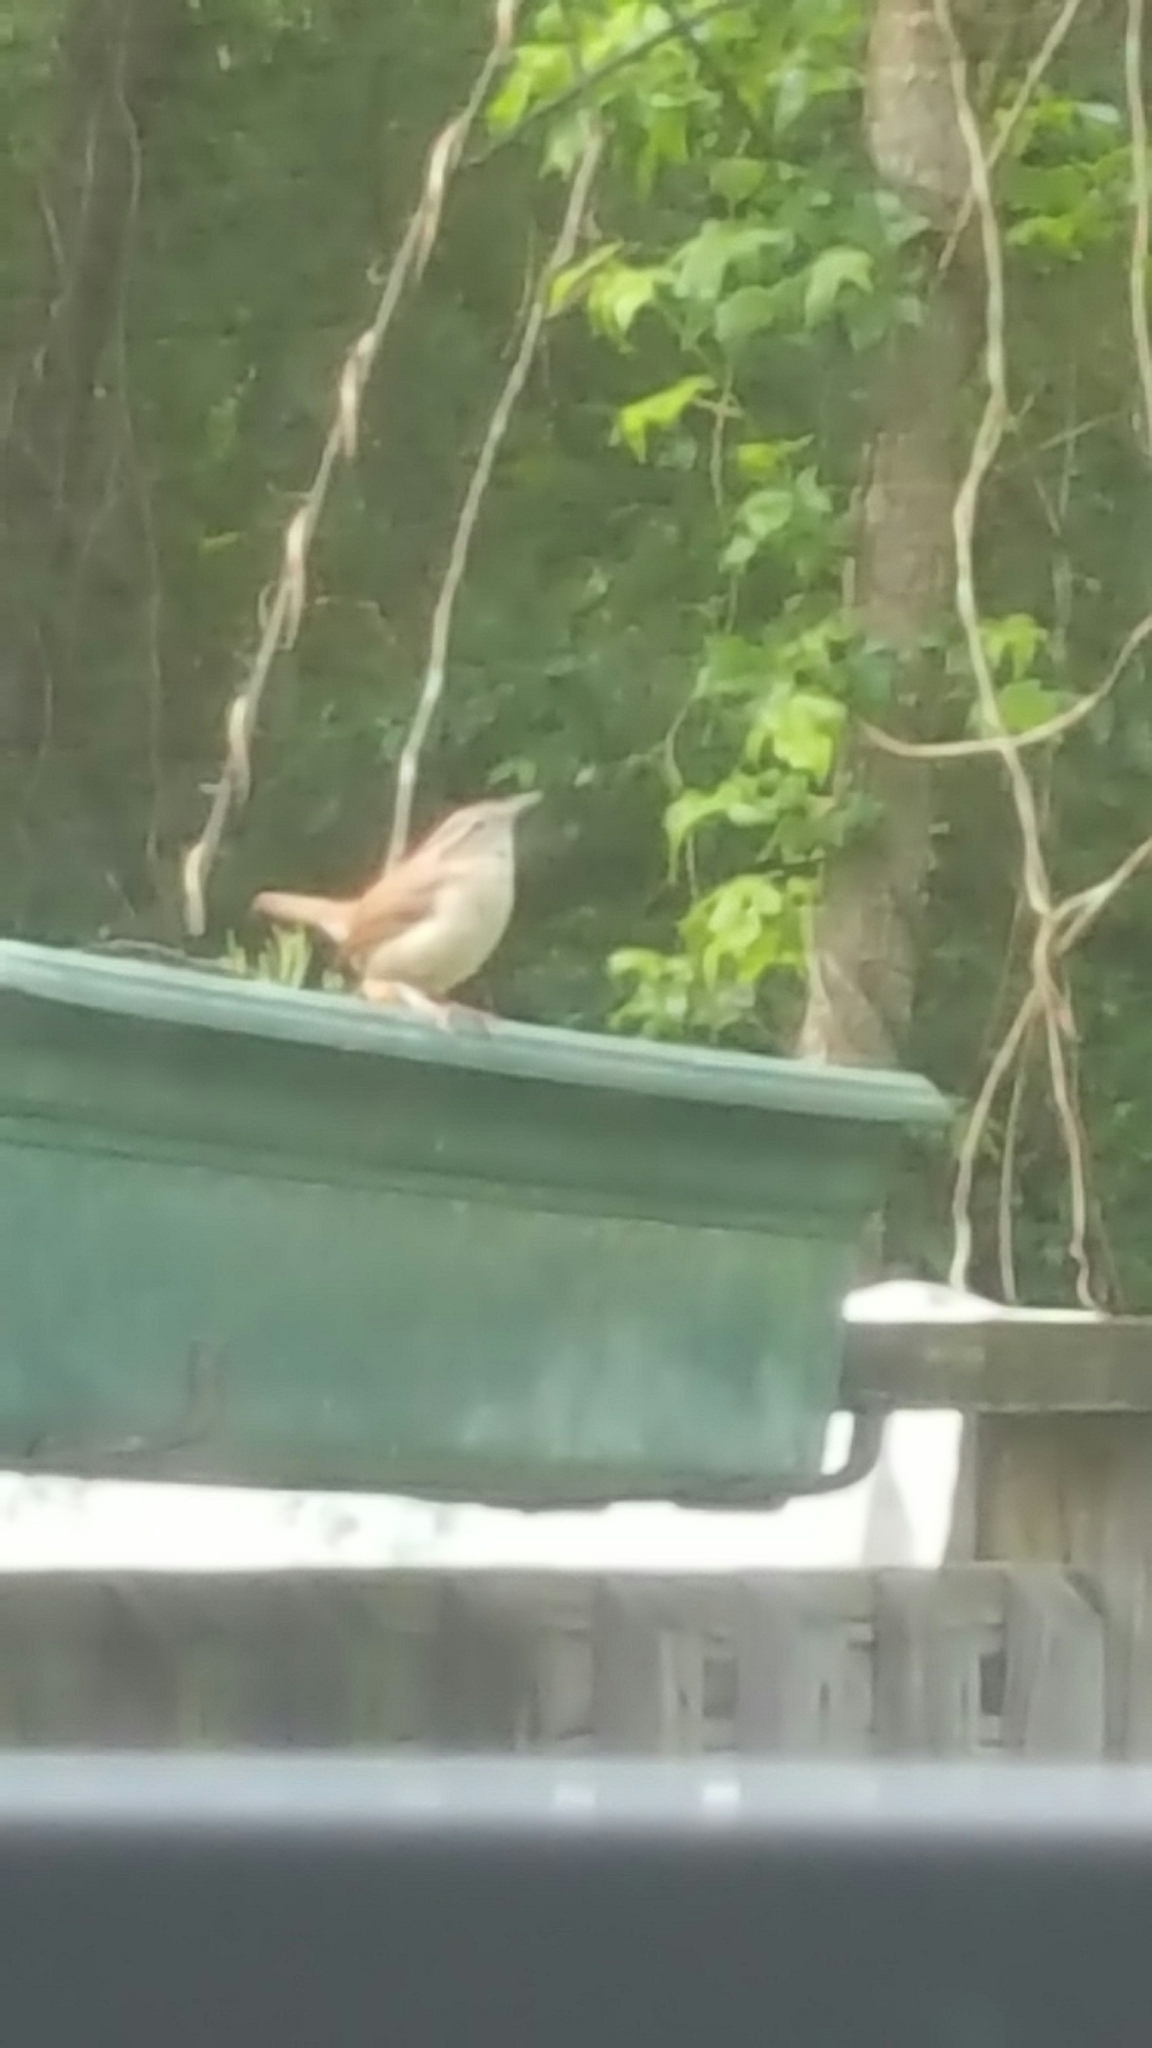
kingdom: Animalia
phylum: Chordata
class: Aves
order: Passeriformes
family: Troglodytidae
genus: Thryothorus
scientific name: Thryothorus ludovicianus
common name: Carolina wren
